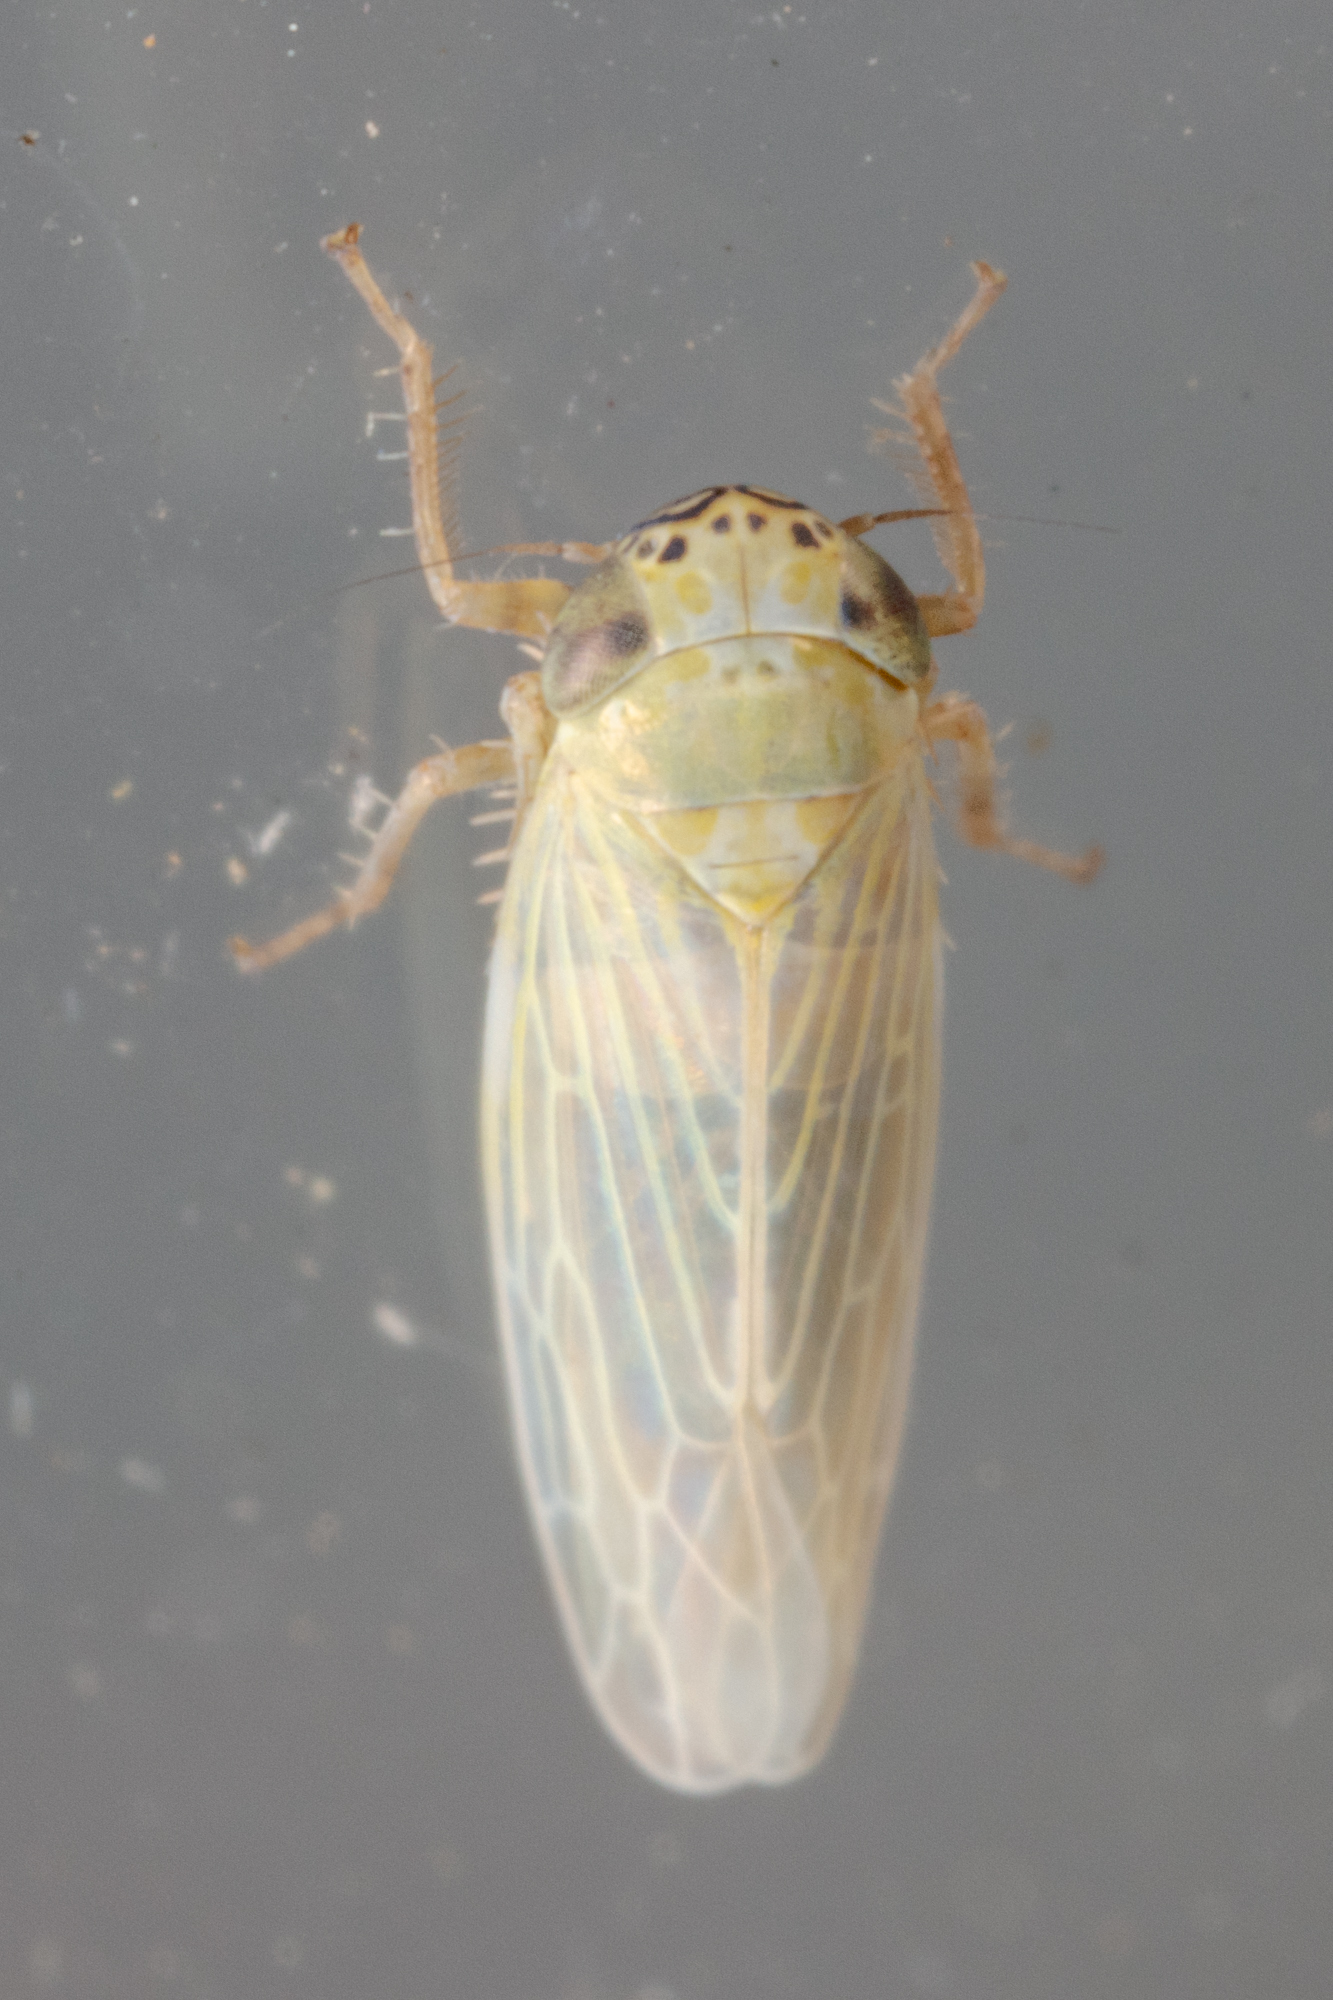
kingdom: Animalia
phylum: Arthropoda
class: Insecta
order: Hemiptera
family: Cicadellidae
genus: Graminella
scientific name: Graminella nigrifrons
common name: Blackfaced leafhopper
